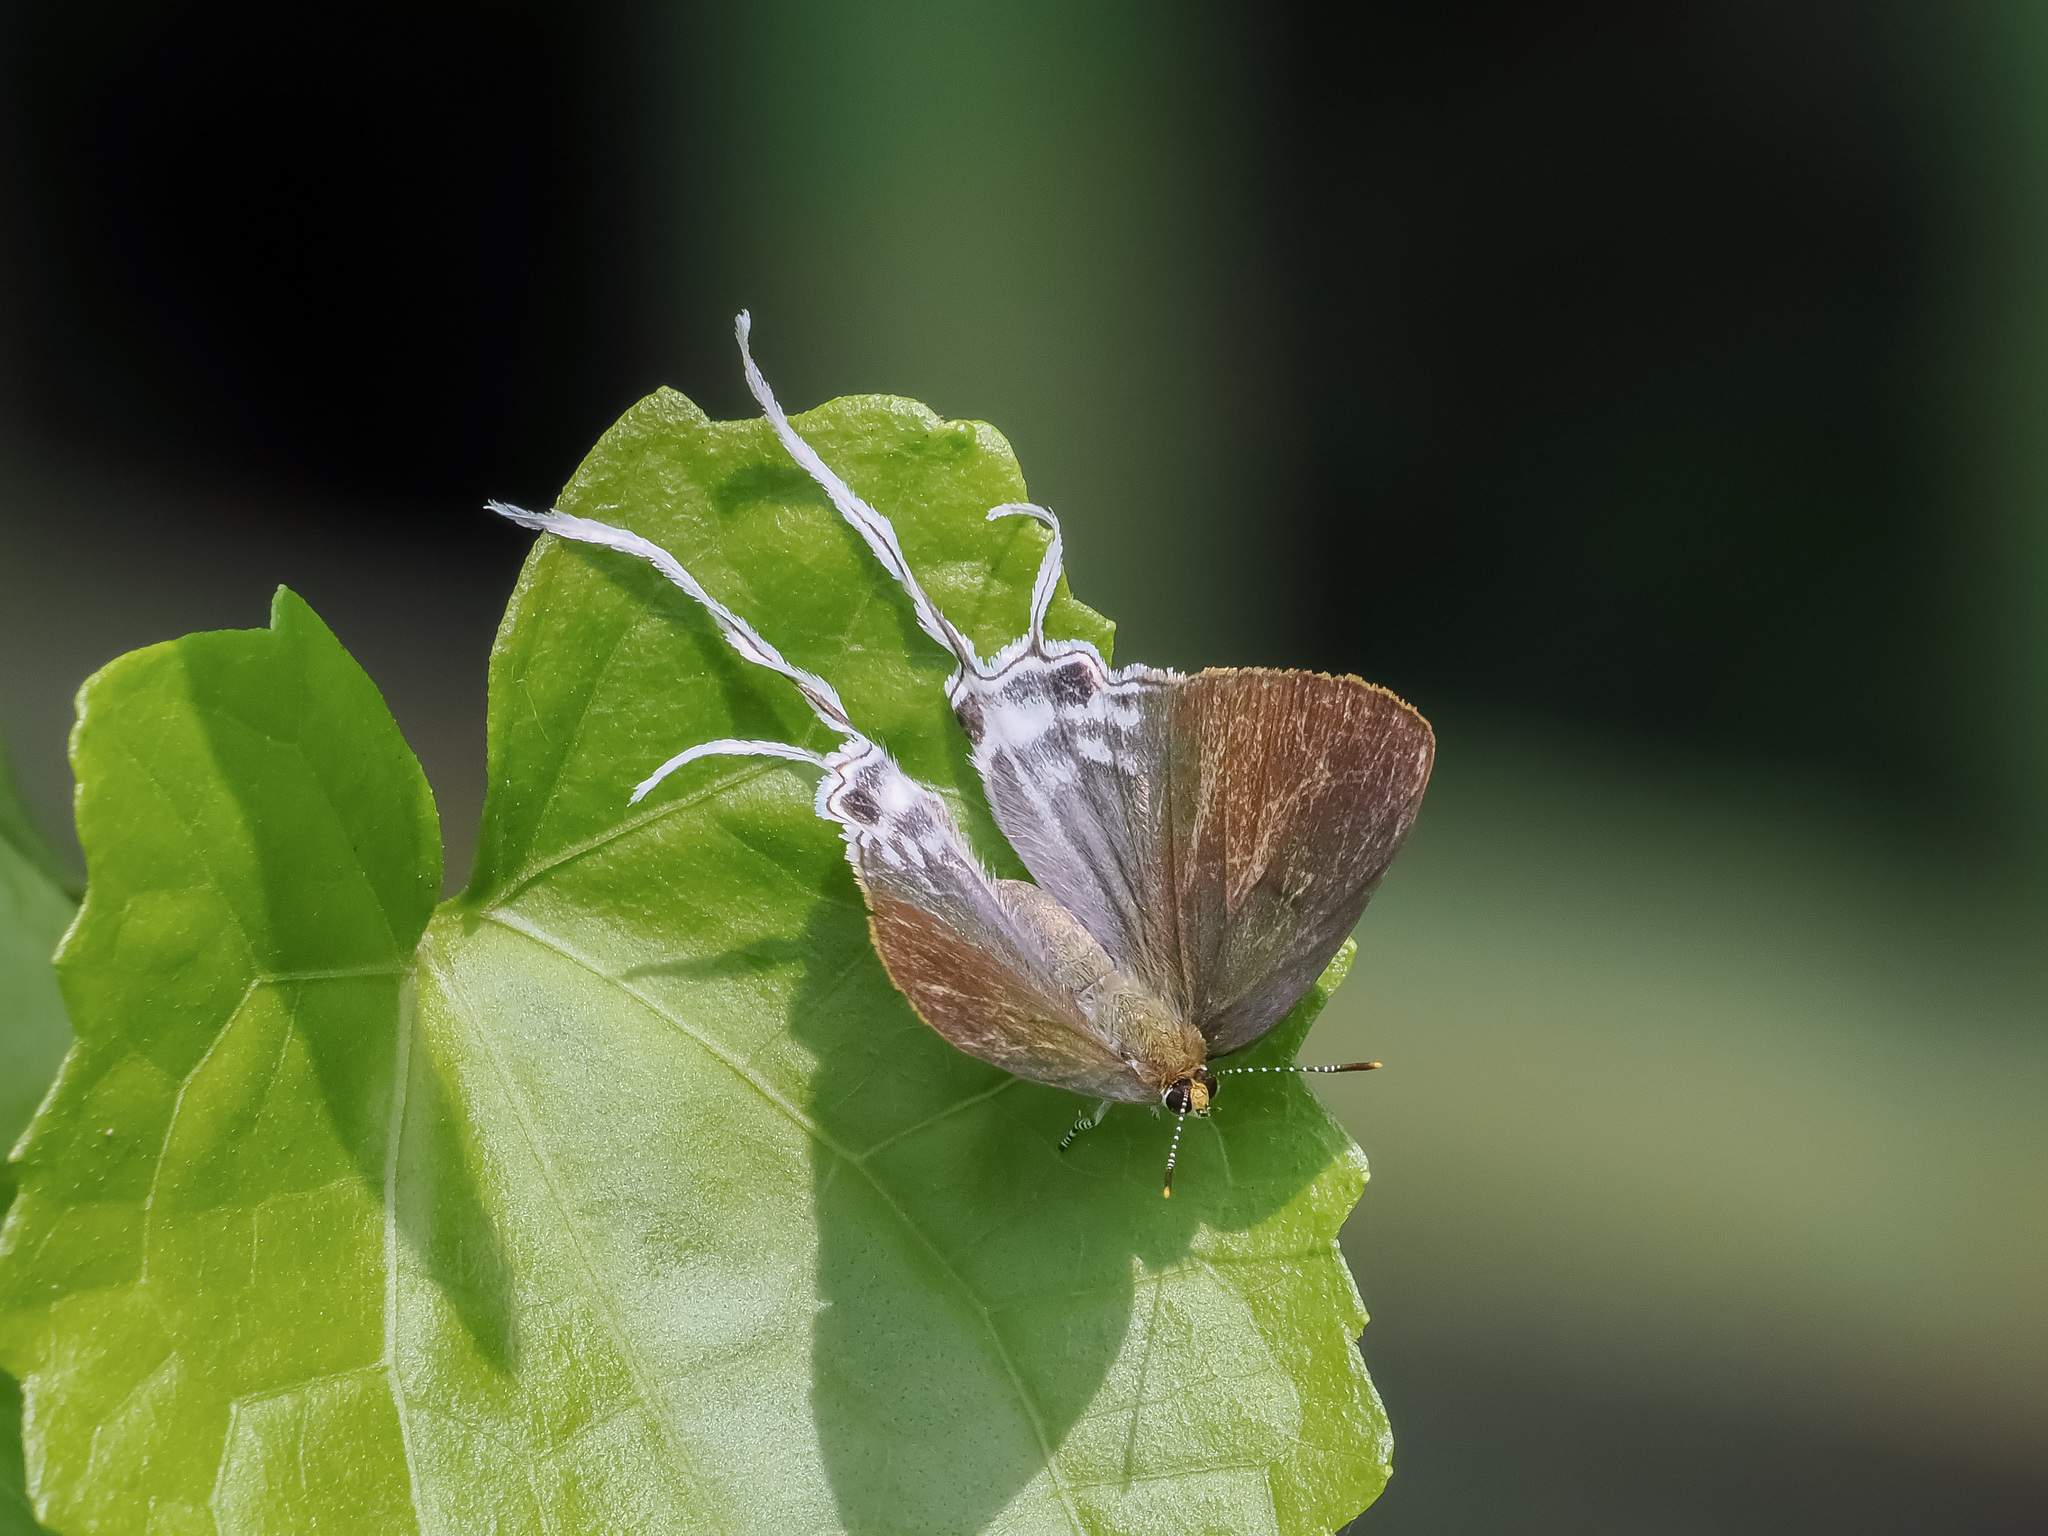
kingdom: Animalia
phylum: Arthropoda
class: Insecta
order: Lepidoptera
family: Lycaenidae
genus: Zeltus
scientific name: Zeltus amasa
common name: Fluffy tit
